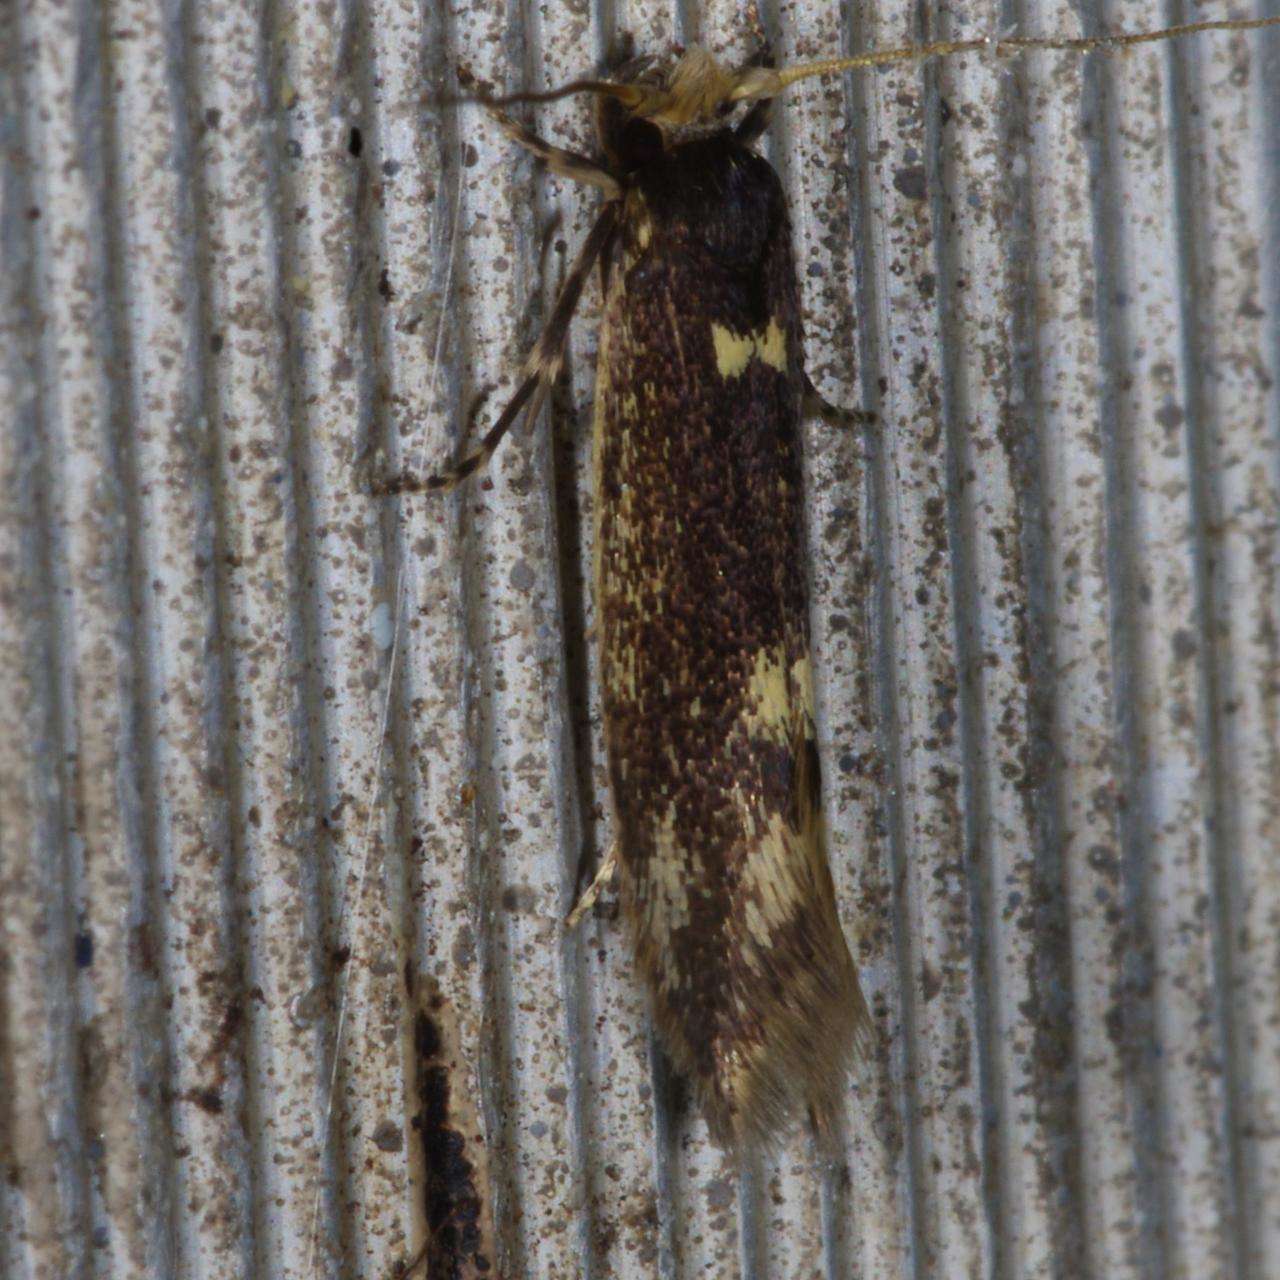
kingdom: Animalia
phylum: Arthropoda
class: Insecta
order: Lepidoptera
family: Tineidae
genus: Opogona
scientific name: Opogona omoscopa
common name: Moth
